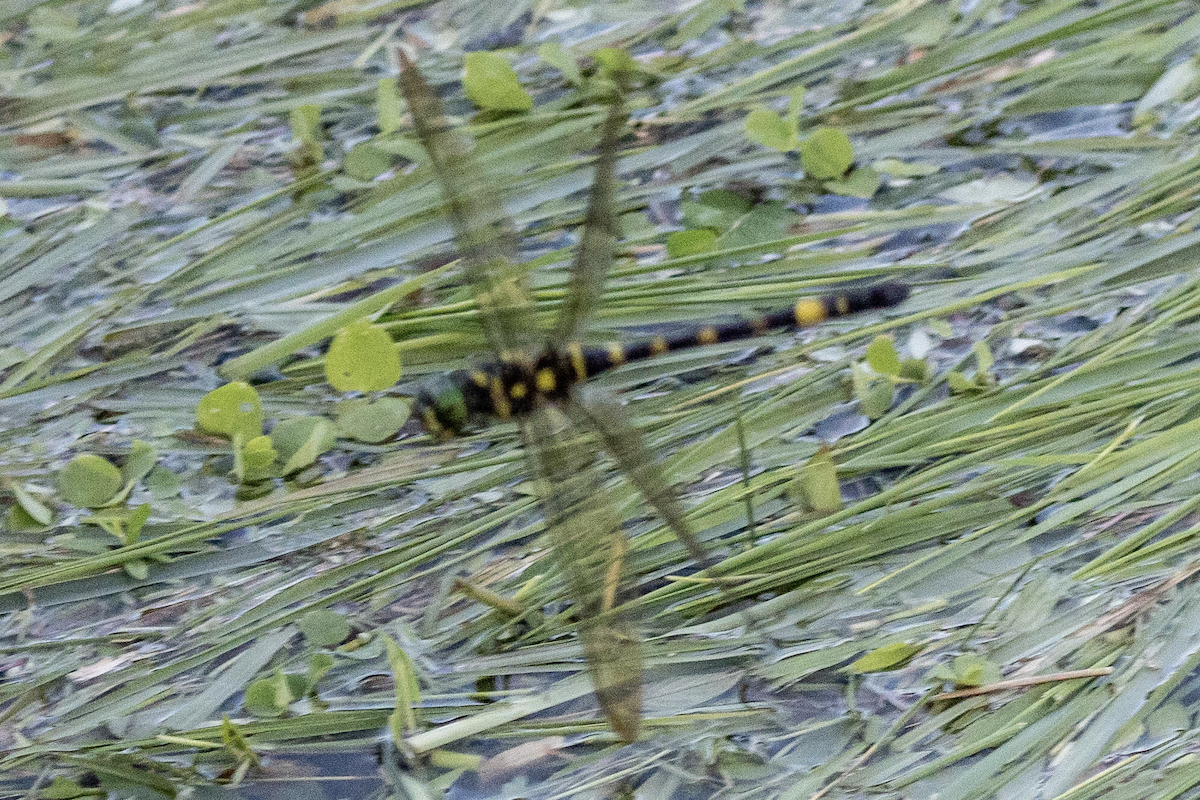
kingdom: Animalia
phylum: Arthropoda
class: Insecta
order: Odonata
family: Macromiidae
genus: Epophthalmia
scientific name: Epophthalmia elegans
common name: Regal pond cruiser
